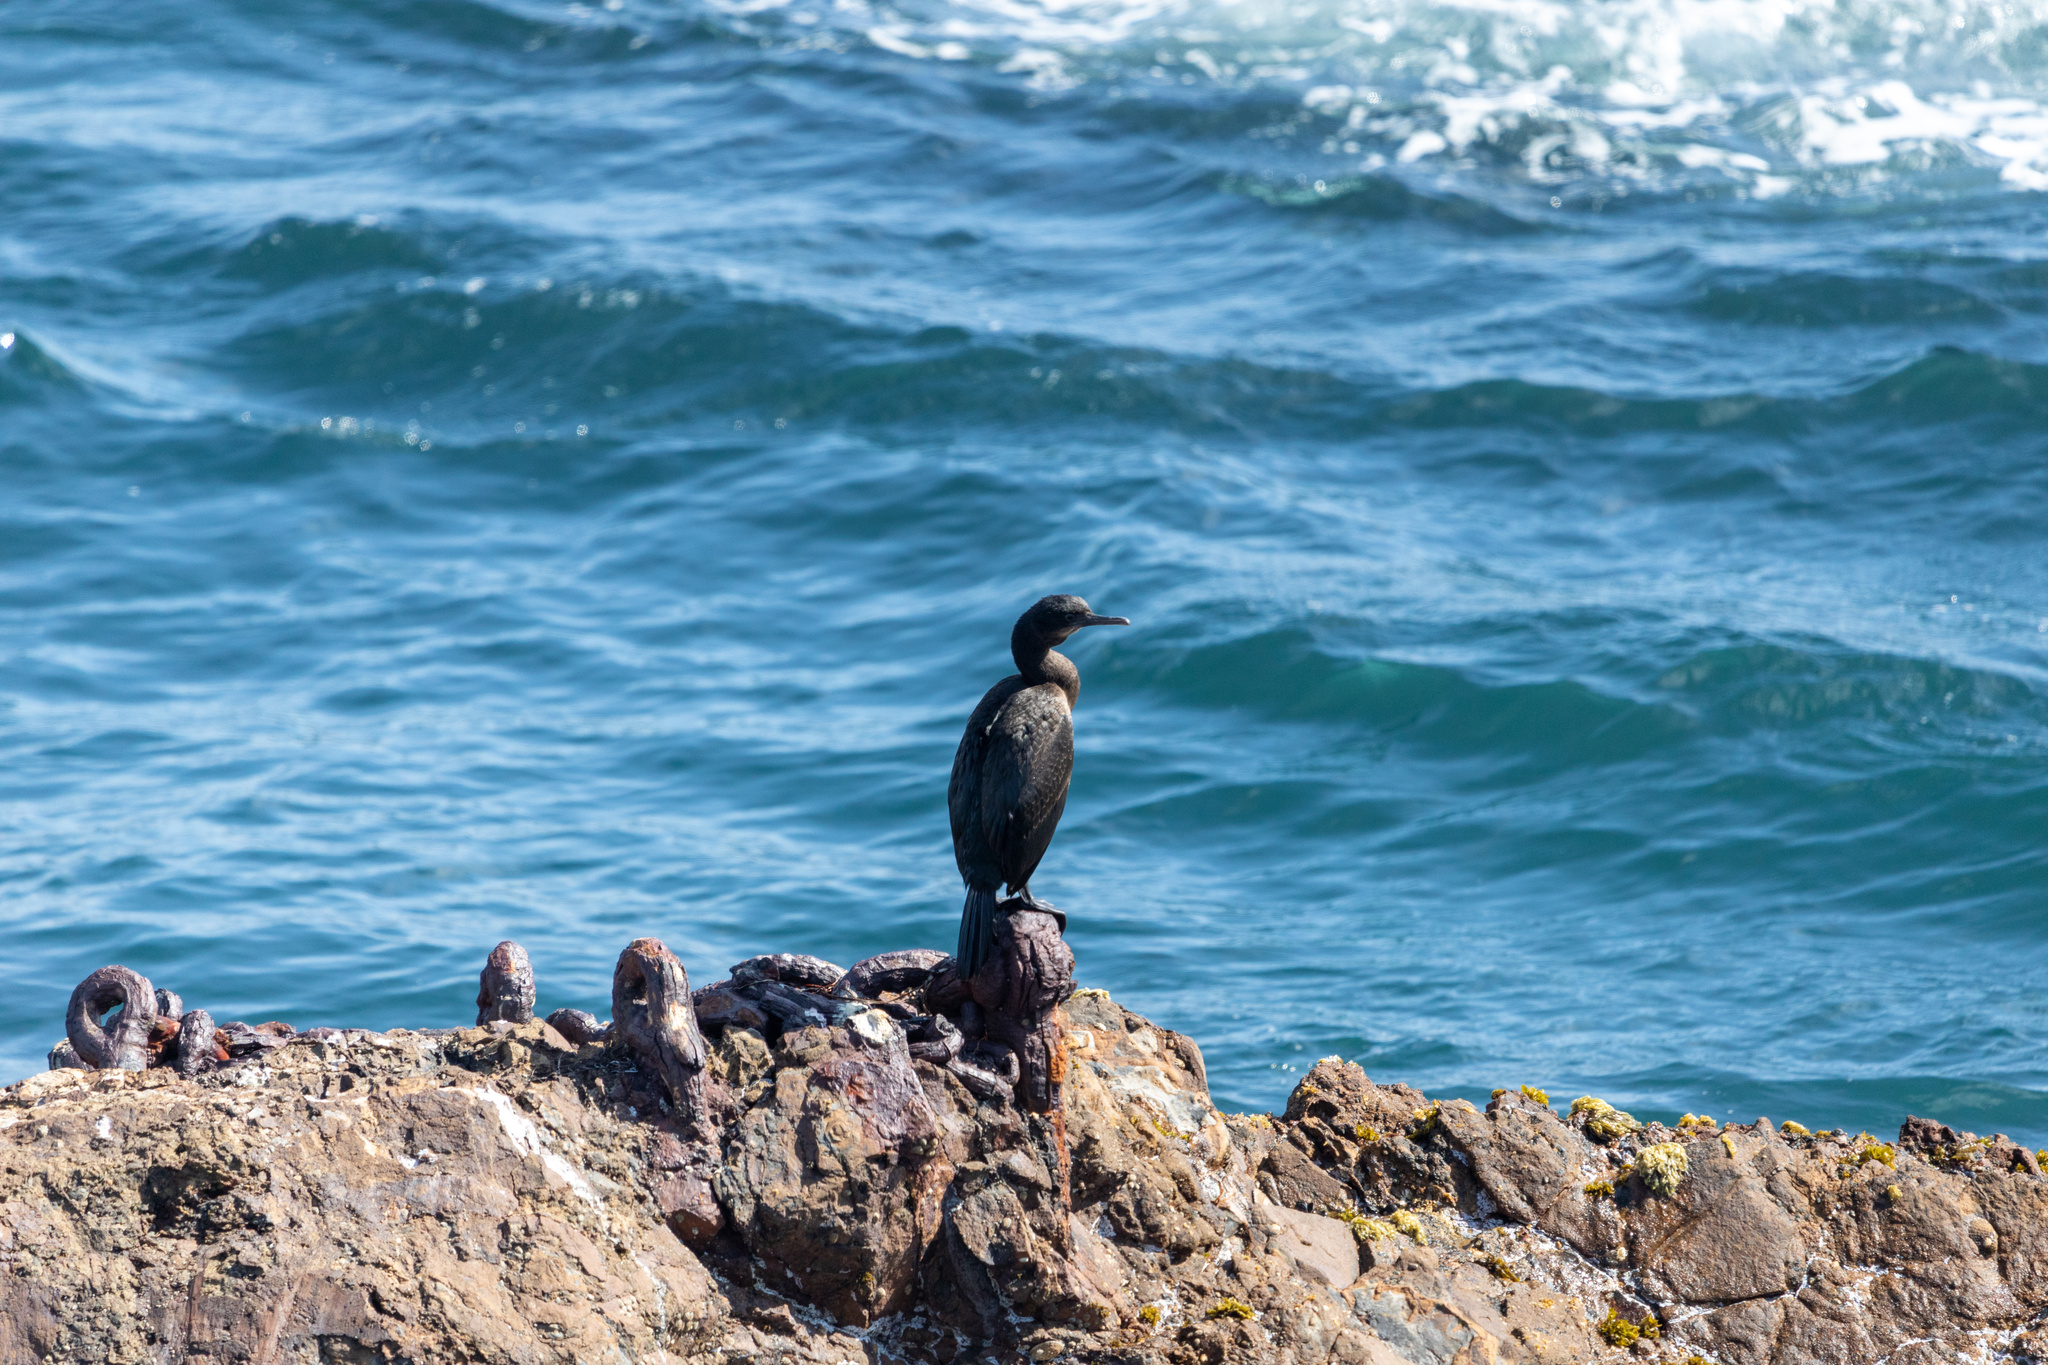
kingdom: Animalia
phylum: Chordata
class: Aves
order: Suliformes
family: Phalacrocoracidae
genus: Urile
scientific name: Urile penicillatus
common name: Brandt's cormorant
